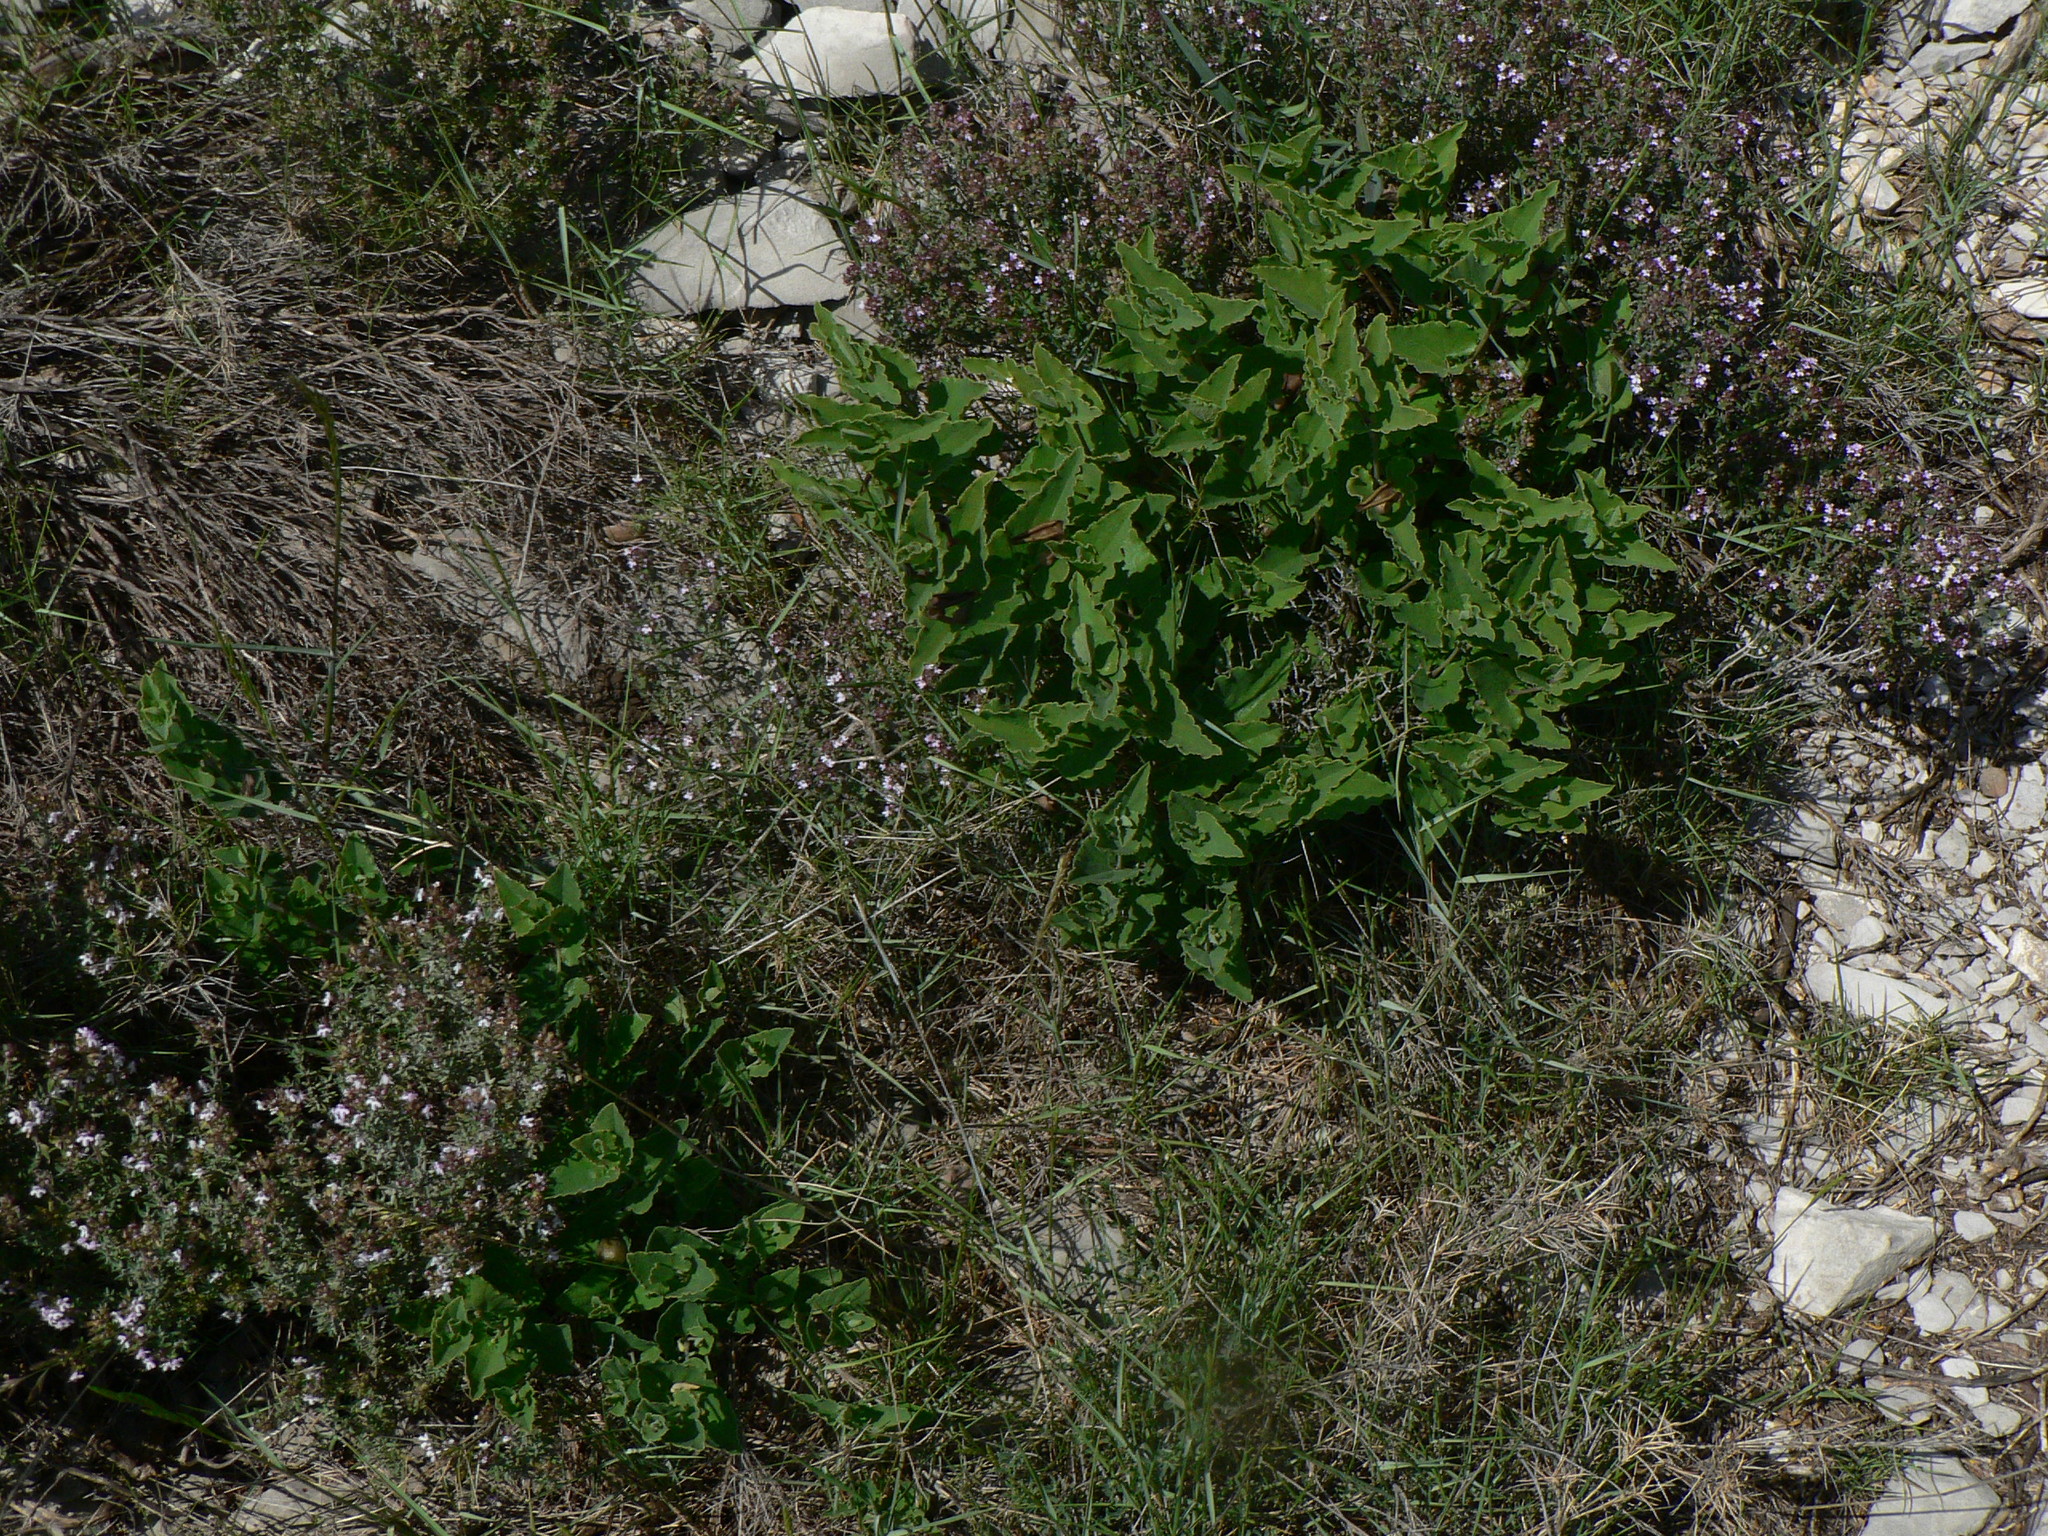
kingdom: Plantae
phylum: Tracheophyta
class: Magnoliopsida
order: Piperales
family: Aristolochiaceae
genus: Aristolochia
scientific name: Aristolochia pistolochia
